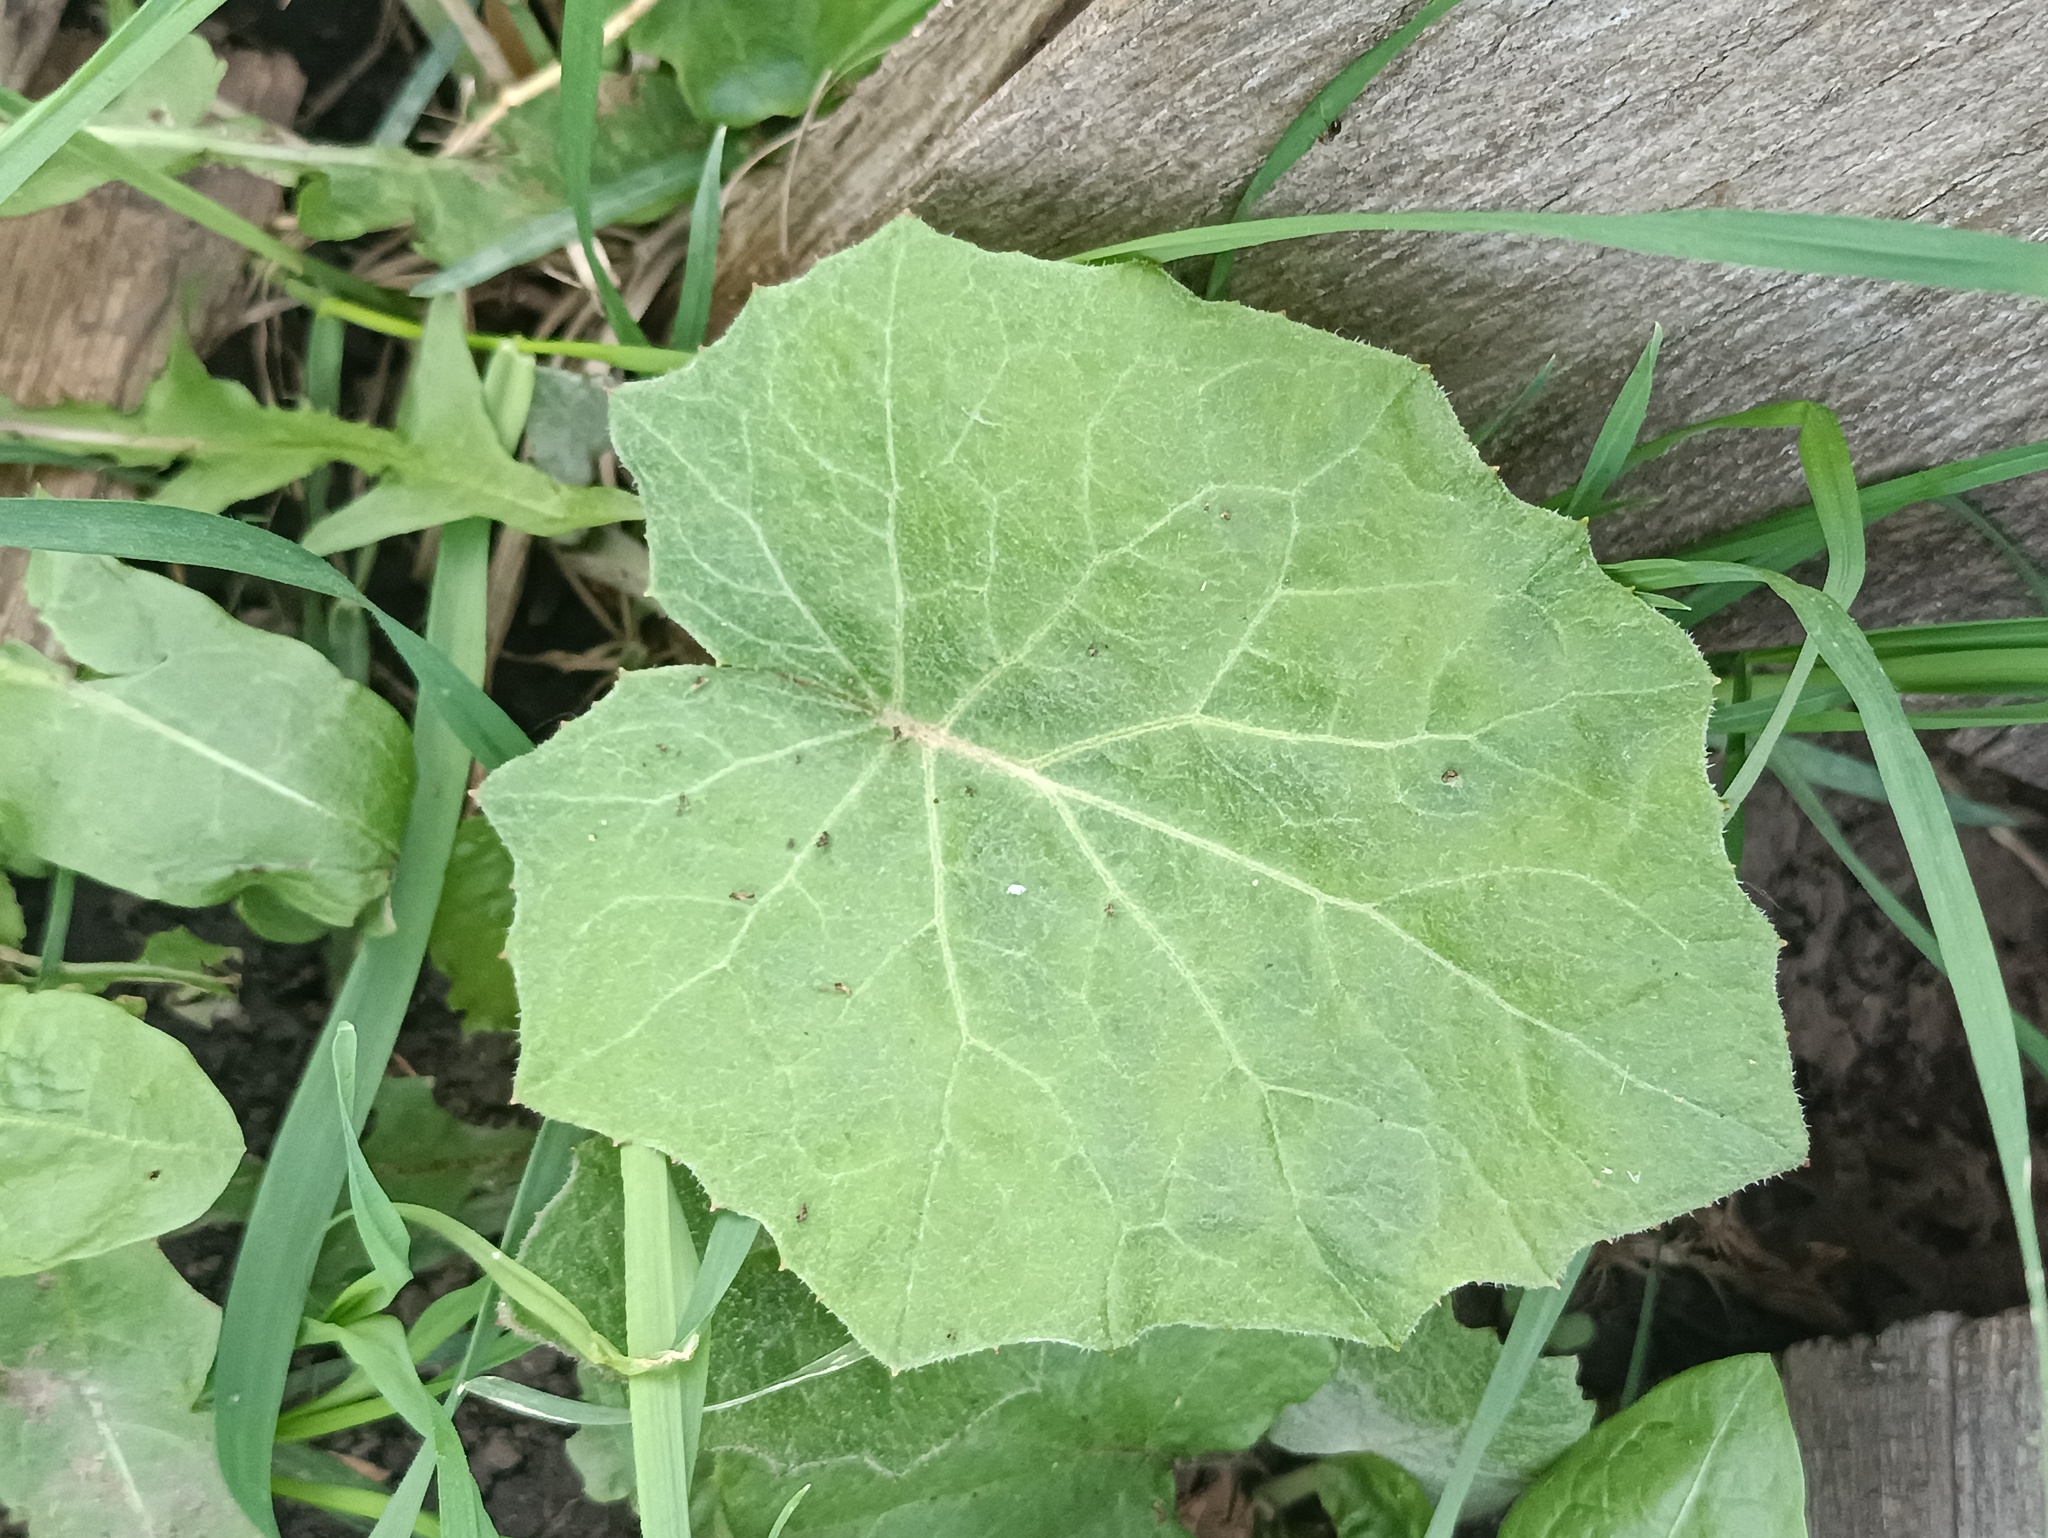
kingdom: Plantae
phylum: Tracheophyta
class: Magnoliopsida
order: Asterales
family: Asteraceae
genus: Tussilago
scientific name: Tussilago farfara
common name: Coltsfoot
